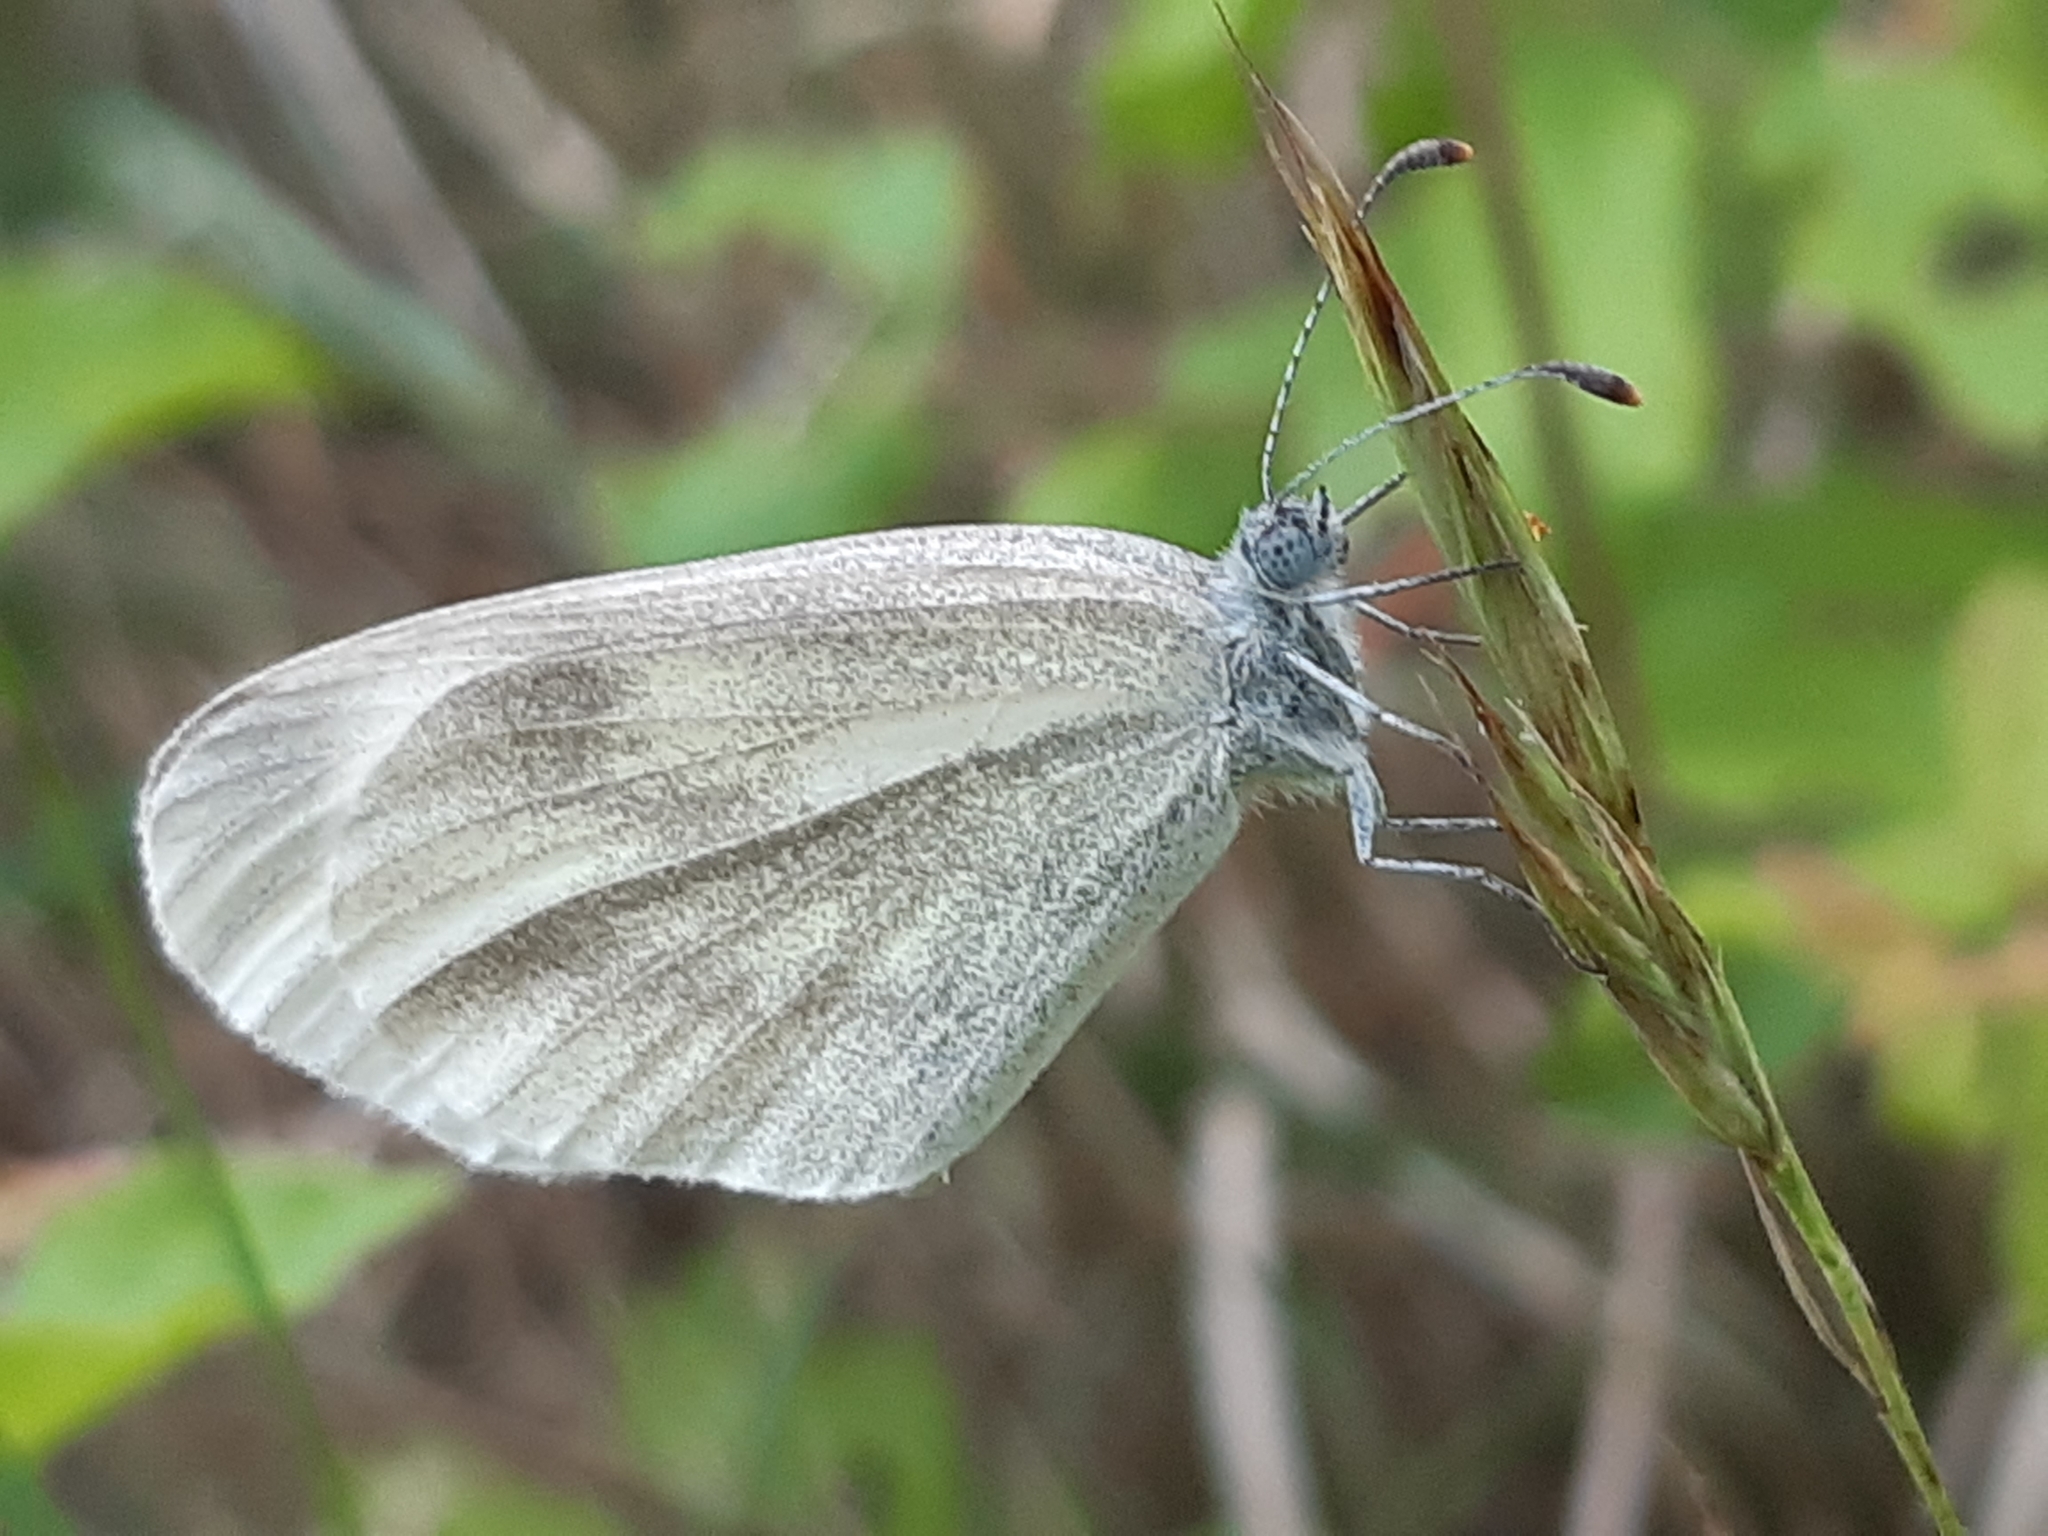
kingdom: Animalia
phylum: Arthropoda
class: Insecta
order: Lepidoptera
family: Pieridae
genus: Leptidea
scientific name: Leptidea
